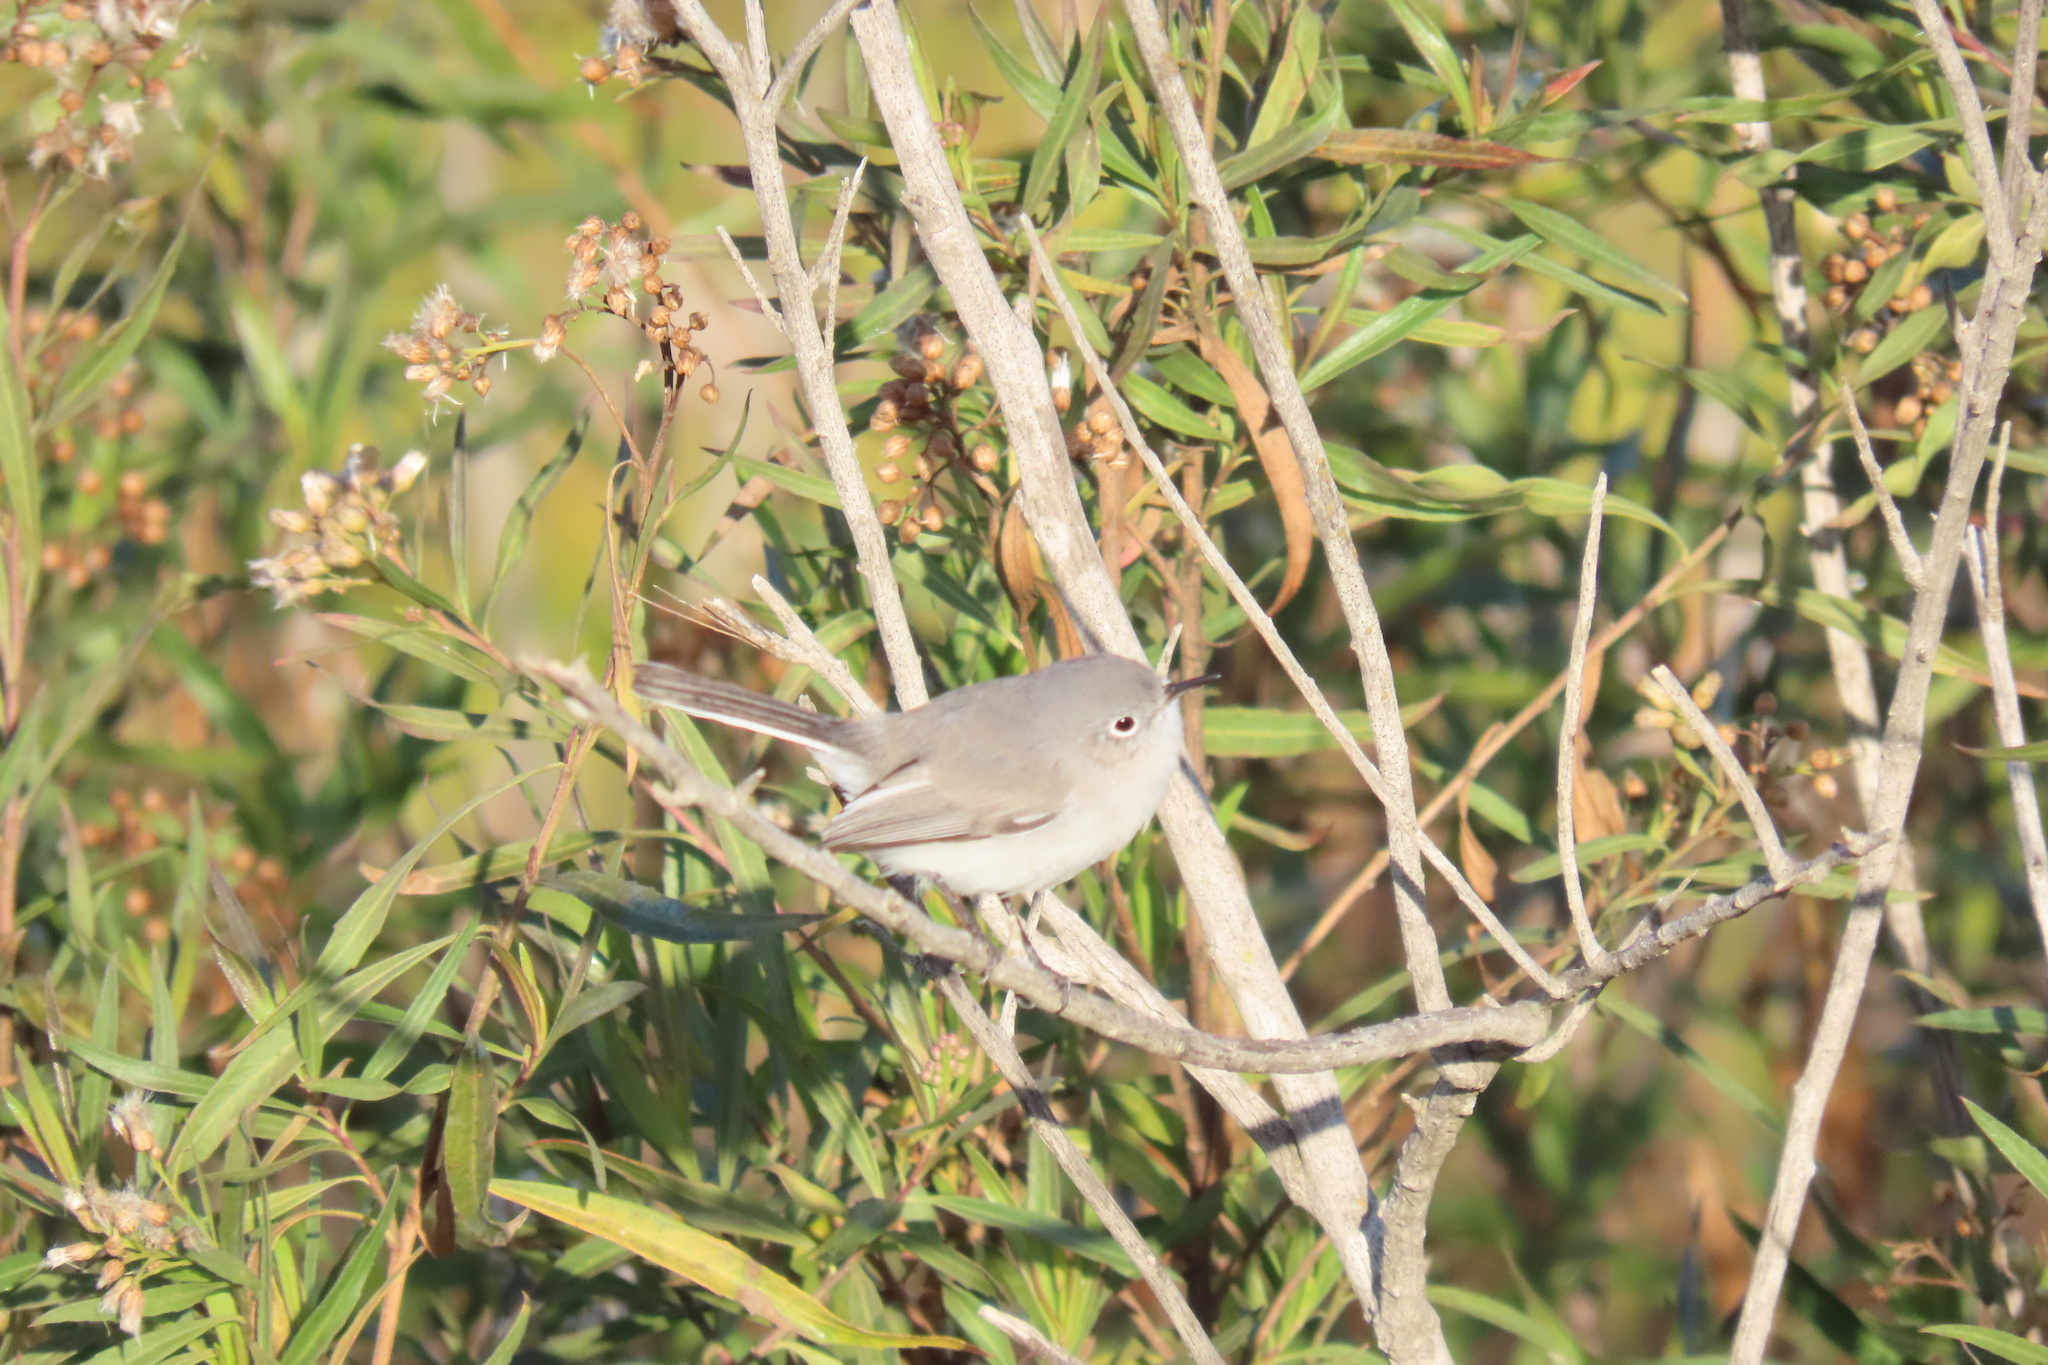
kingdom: Animalia
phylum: Chordata
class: Aves
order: Passeriformes
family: Polioptilidae
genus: Polioptila
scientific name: Polioptila caerulea
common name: Blue-gray gnatcatcher
